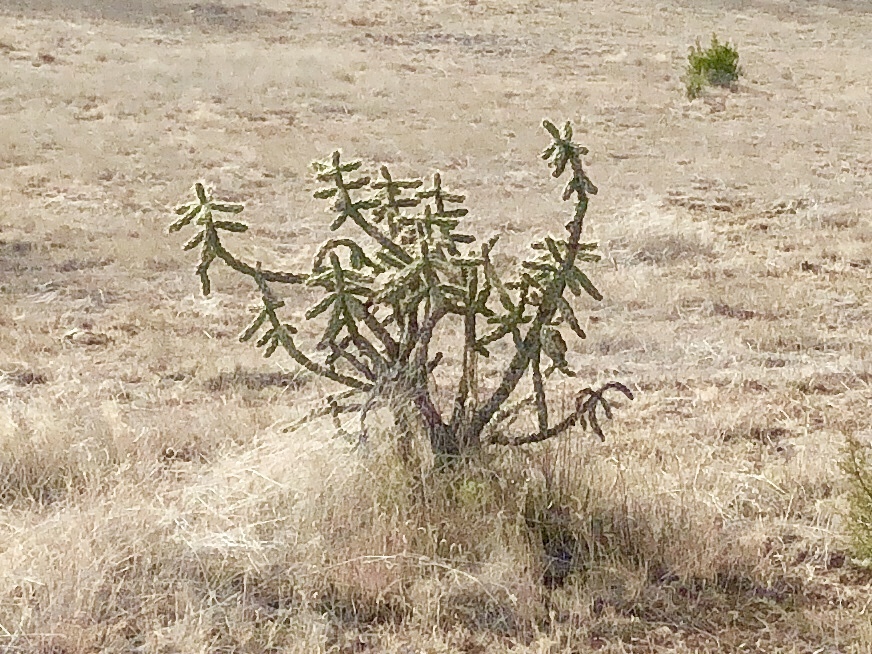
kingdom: Plantae
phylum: Tracheophyta
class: Magnoliopsida
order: Caryophyllales
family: Cactaceae
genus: Cylindropuntia
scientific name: Cylindropuntia imbricata
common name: Candelabrum cactus
